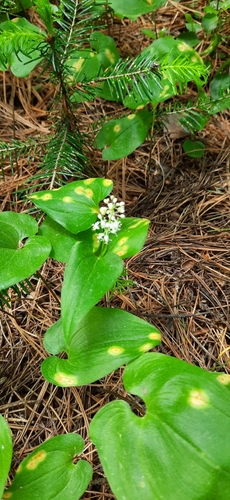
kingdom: Fungi
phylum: Basidiomycota
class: Pucciniomycetes
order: Pucciniales
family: Pucciniaceae
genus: Puccinia
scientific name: Puccinia sessilis
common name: Arum rust
